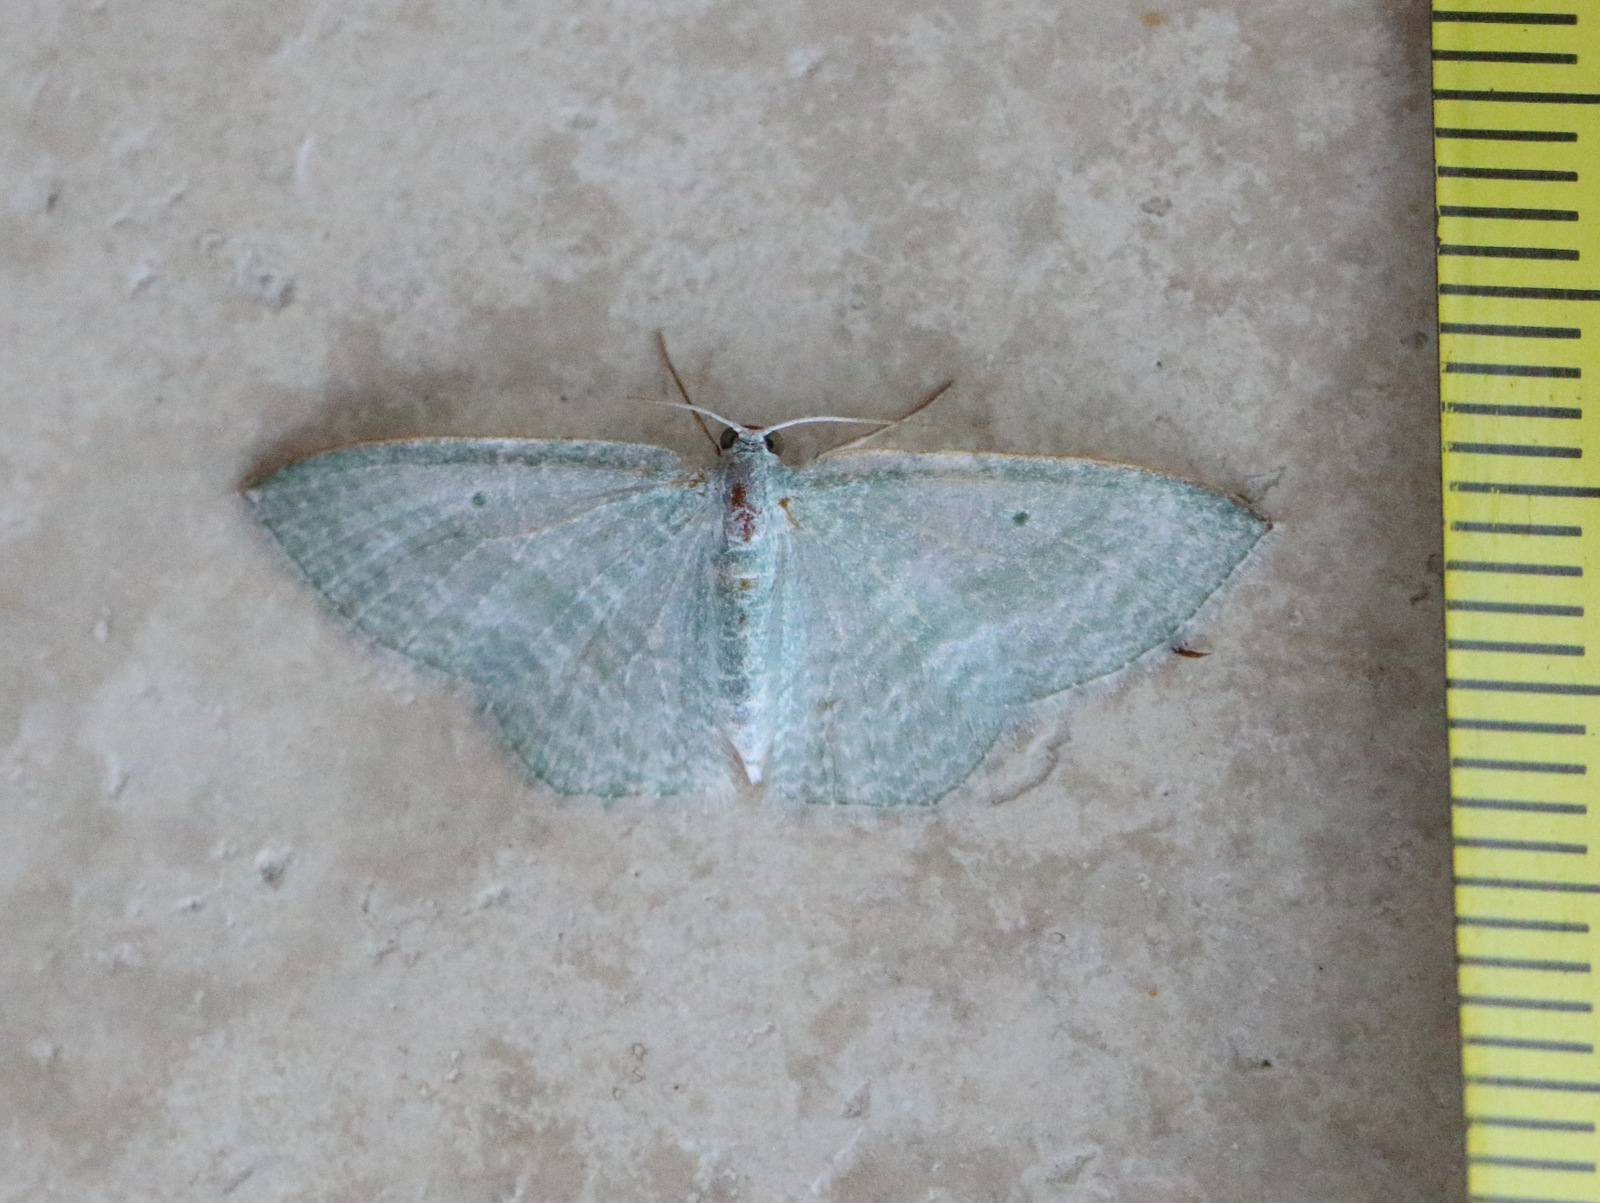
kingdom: Animalia
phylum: Arthropoda
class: Insecta
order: Lepidoptera
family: Geometridae
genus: Poecilasthena
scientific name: Poecilasthena thalassias
